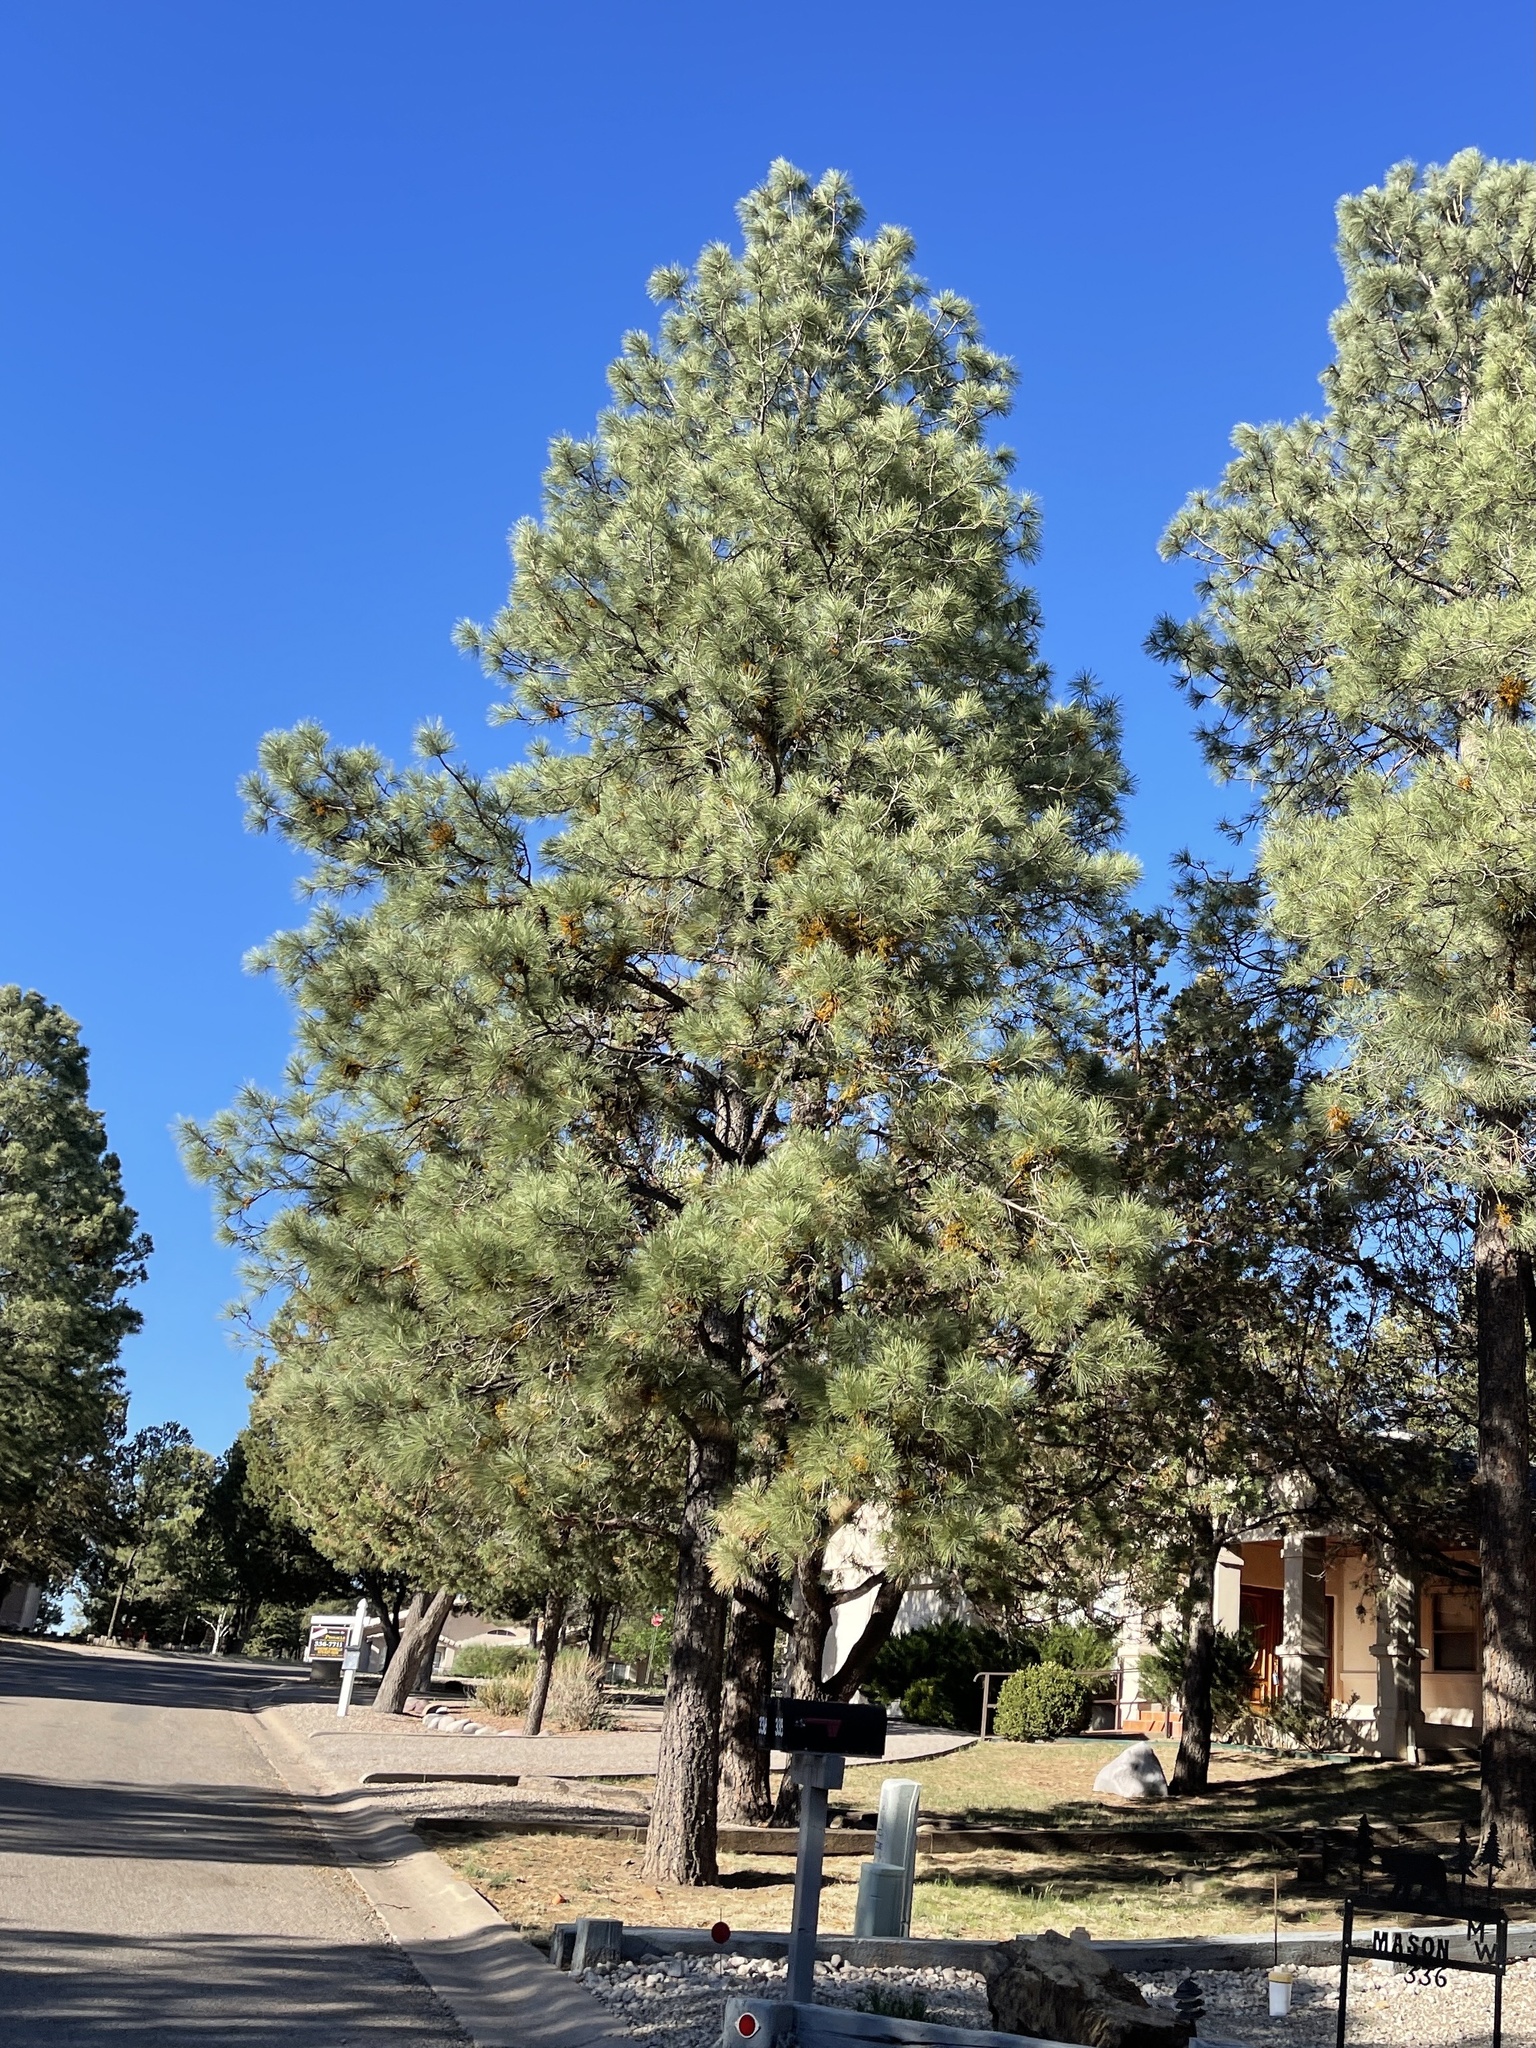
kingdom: Plantae
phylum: Tracheophyta
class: Pinopsida
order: Pinales
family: Pinaceae
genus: Pinus
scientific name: Pinus ponderosa
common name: Western yellow-pine
